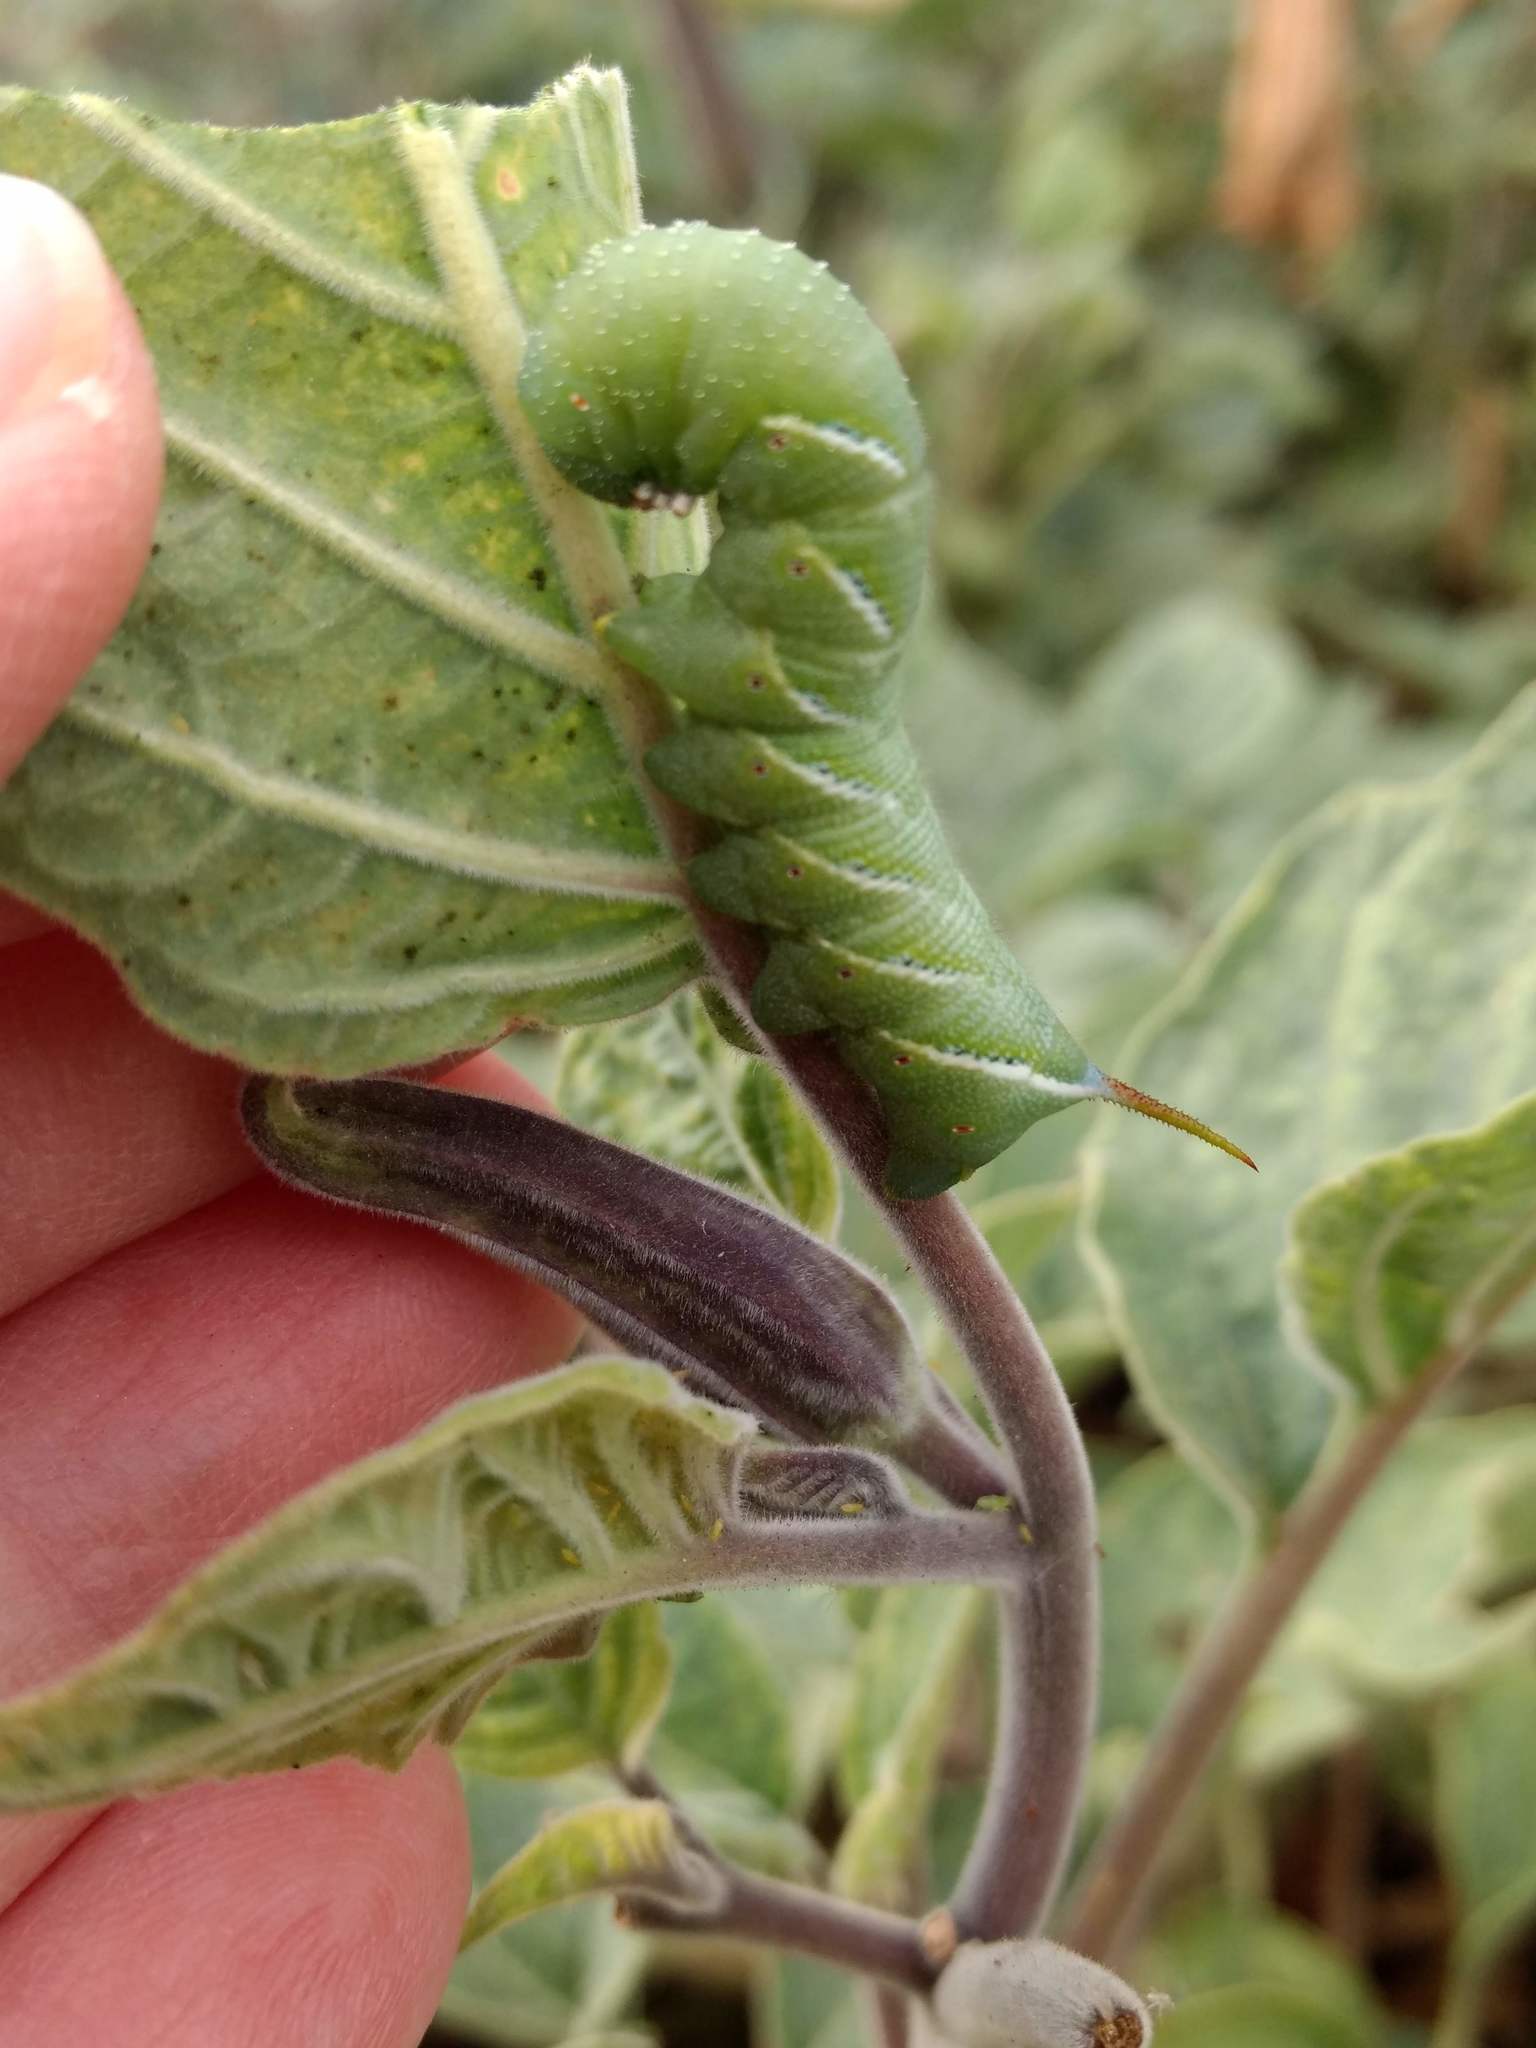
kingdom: Animalia
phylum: Arthropoda
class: Insecta
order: Lepidoptera
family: Sphingidae
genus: Manduca
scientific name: Manduca sexta
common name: Carolina sphinx
